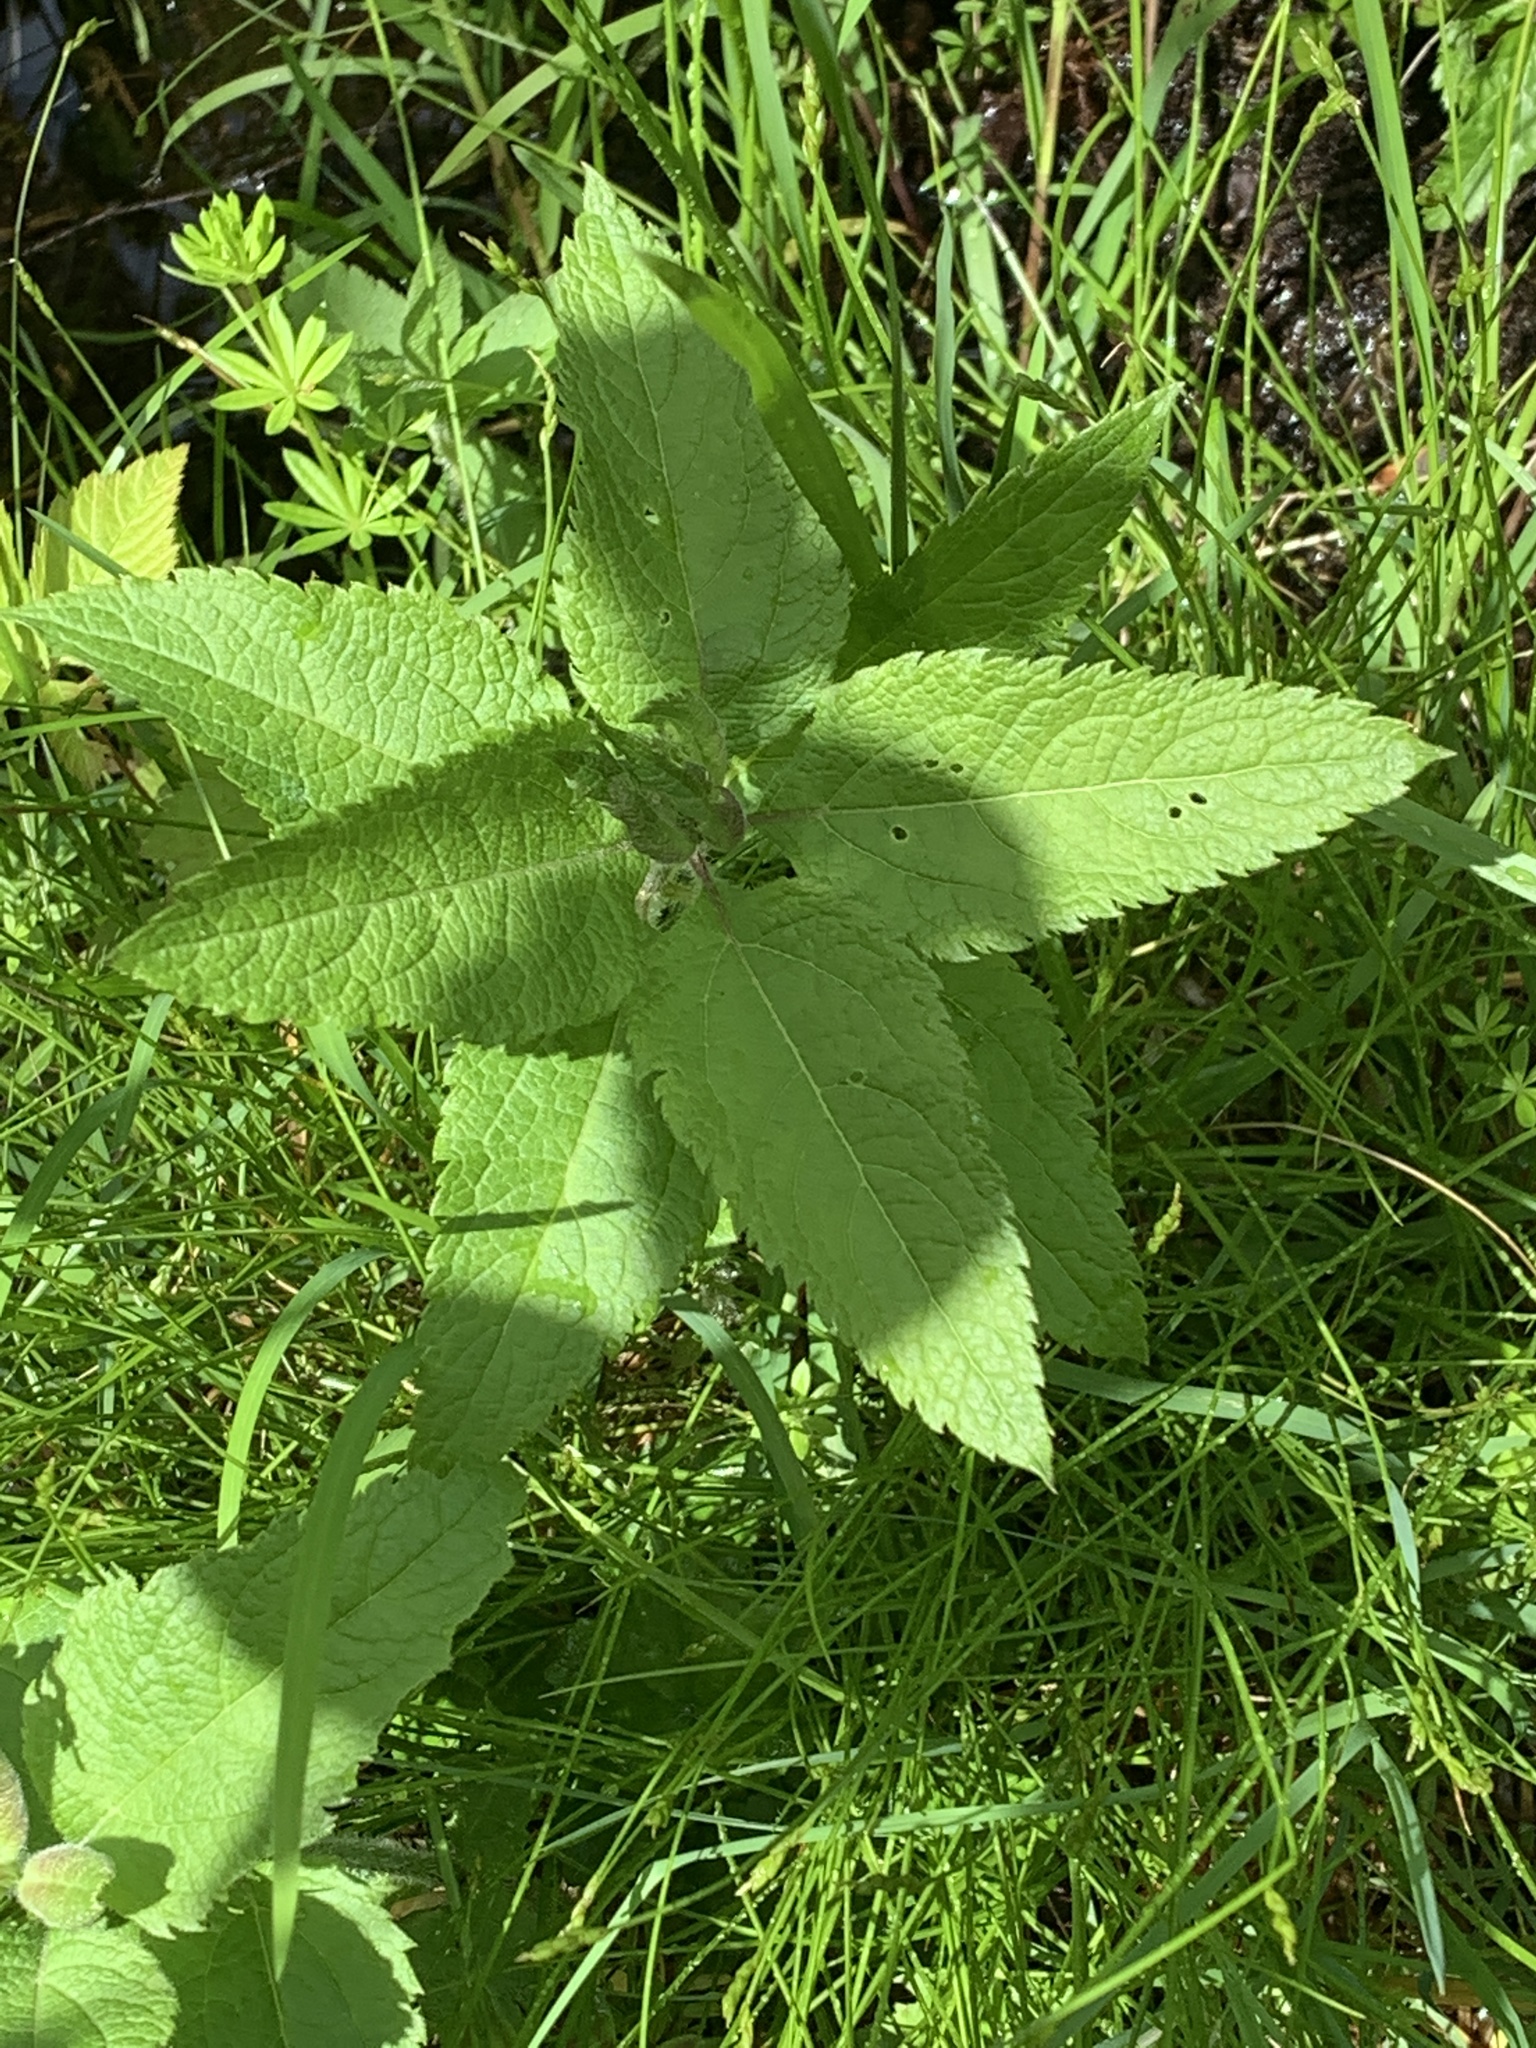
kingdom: Plantae
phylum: Tracheophyta
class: Magnoliopsida
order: Asterales
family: Asteraceae
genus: Eutrochium
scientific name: Eutrochium maculatum
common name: Spotted joe pye weed
